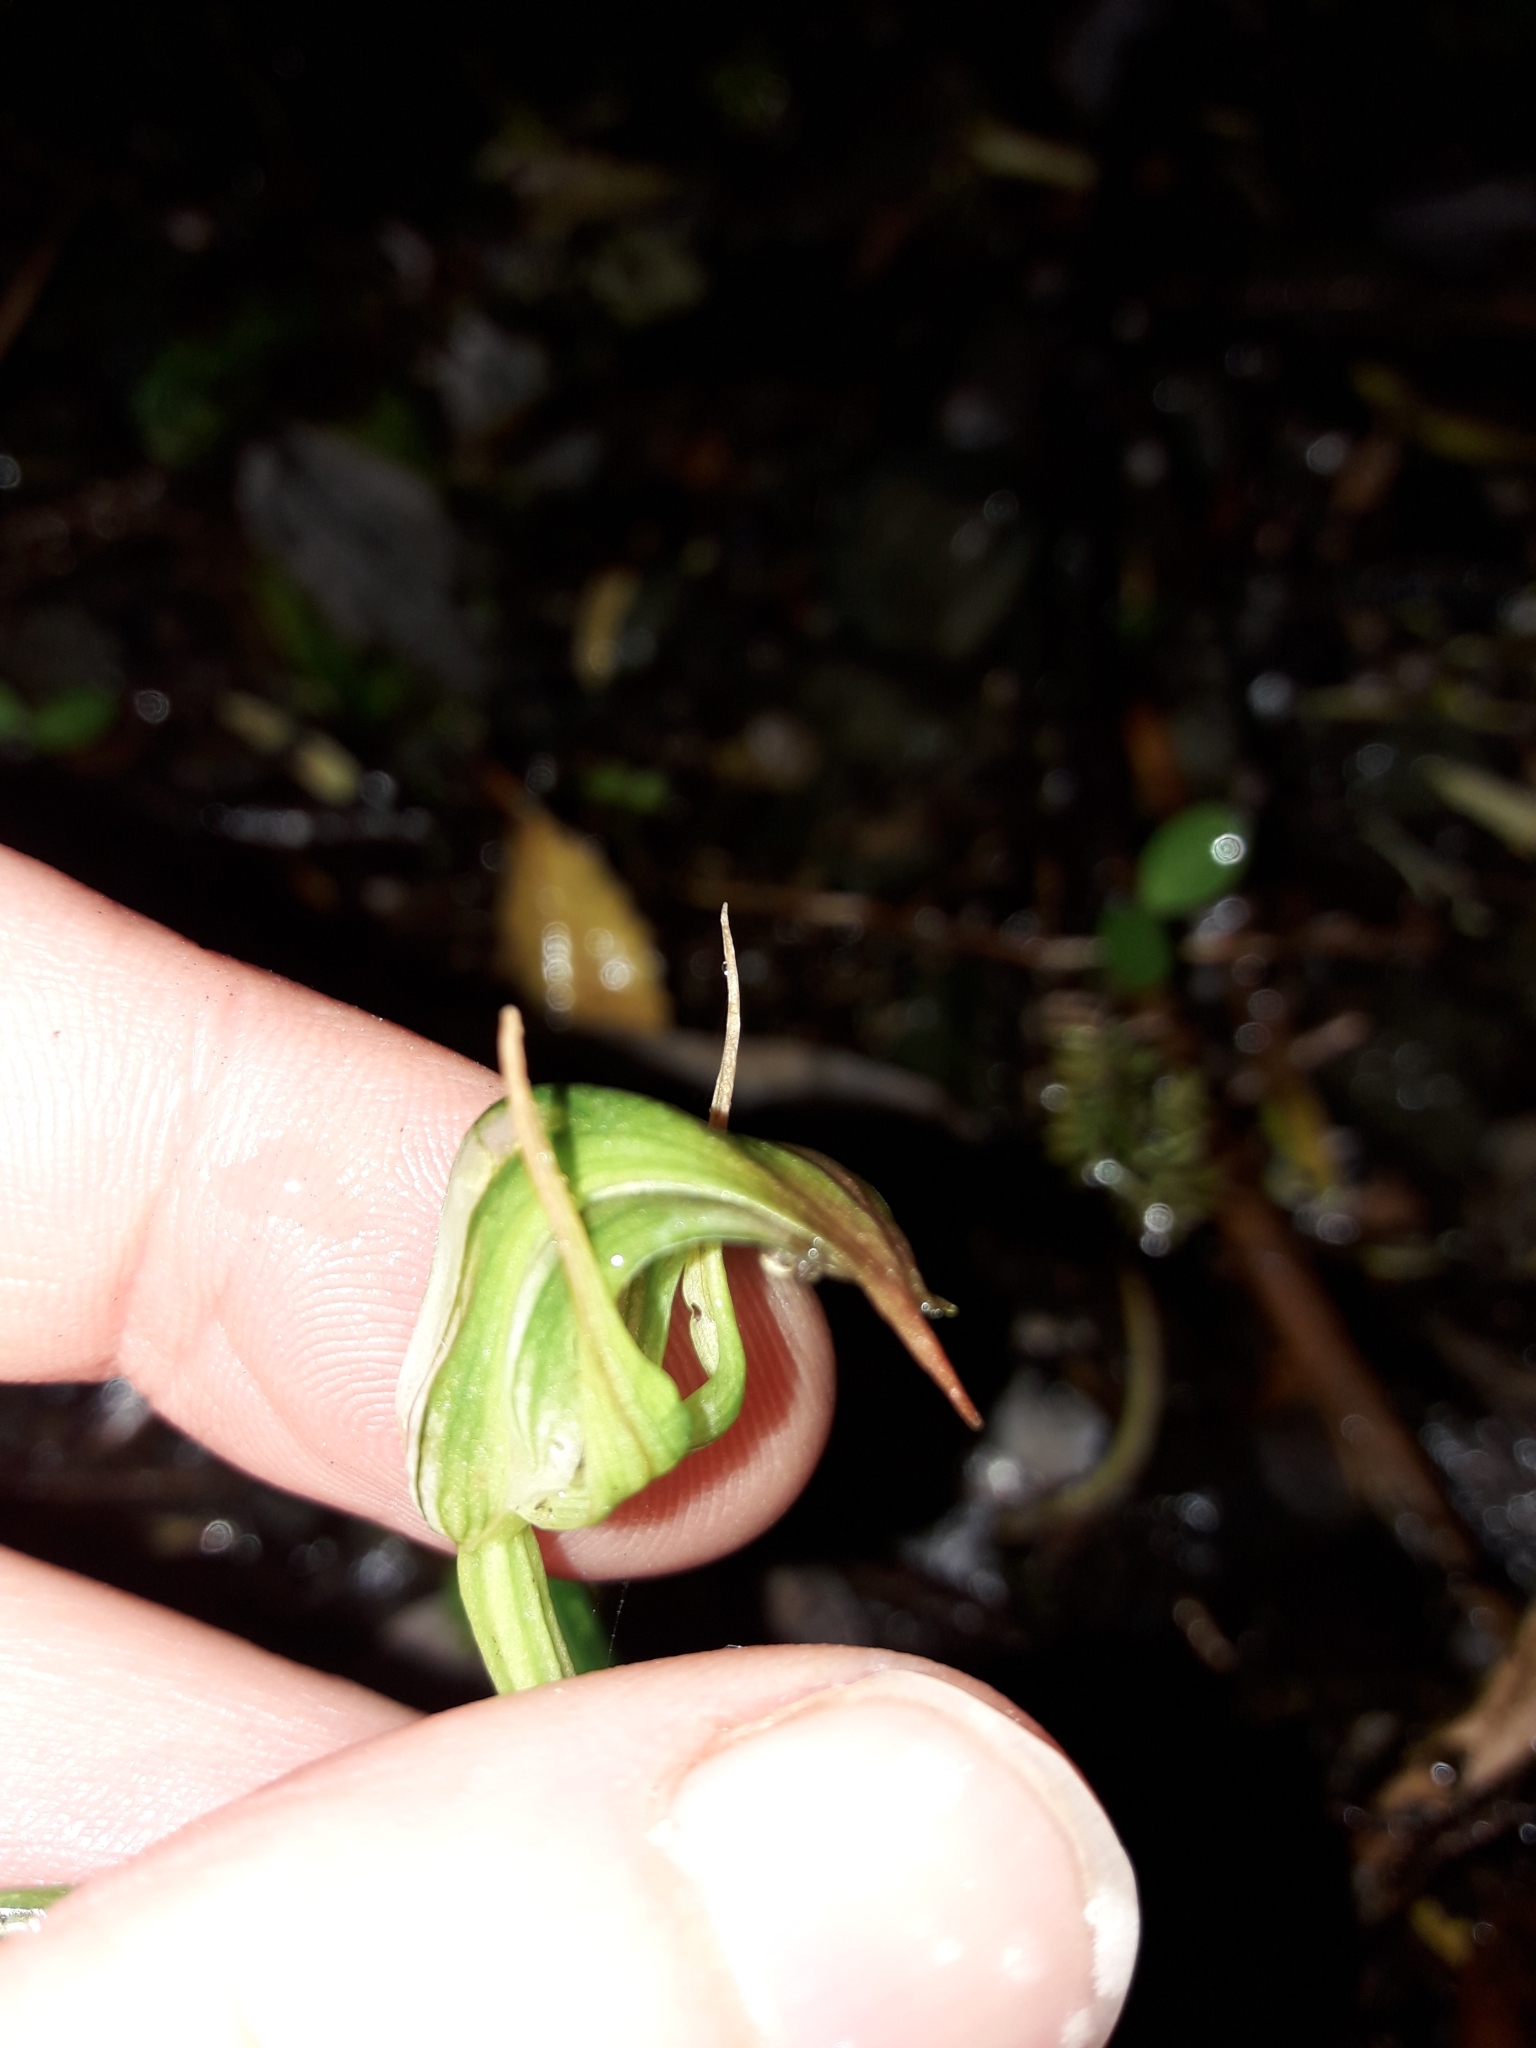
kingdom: Plantae
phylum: Tracheophyta
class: Liliopsida
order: Asparagales
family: Orchidaceae
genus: Pterostylis
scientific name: Pterostylis graminea
